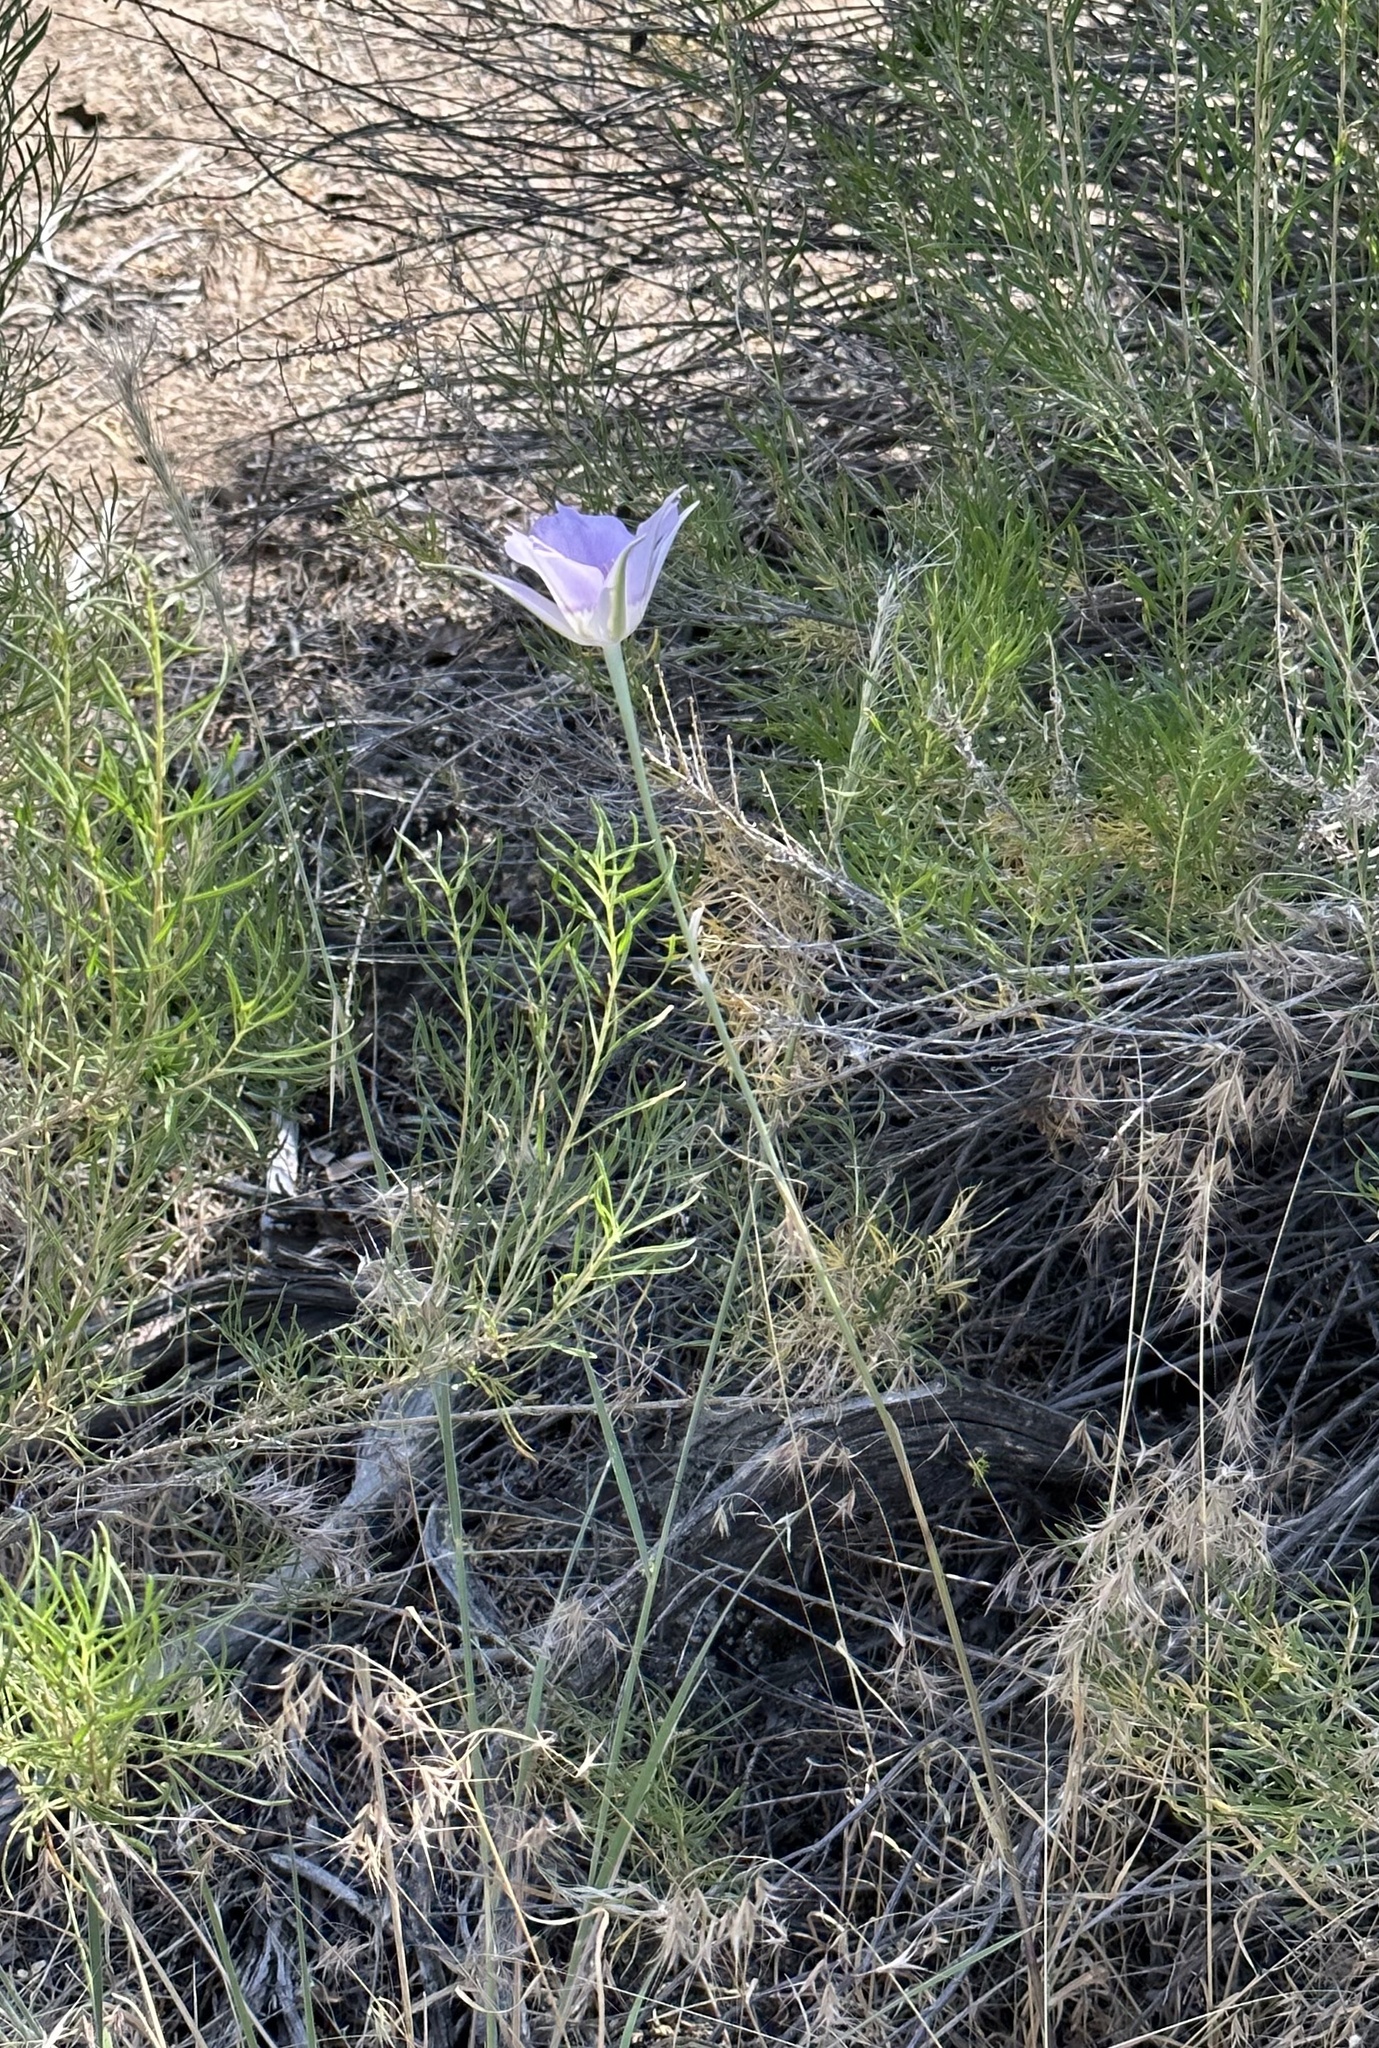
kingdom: Plantae
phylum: Tracheophyta
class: Liliopsida
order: Liliales
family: Liliaceae
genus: Calochortus
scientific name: Calochortus macrocarpus
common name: Green-band mariposa lily
